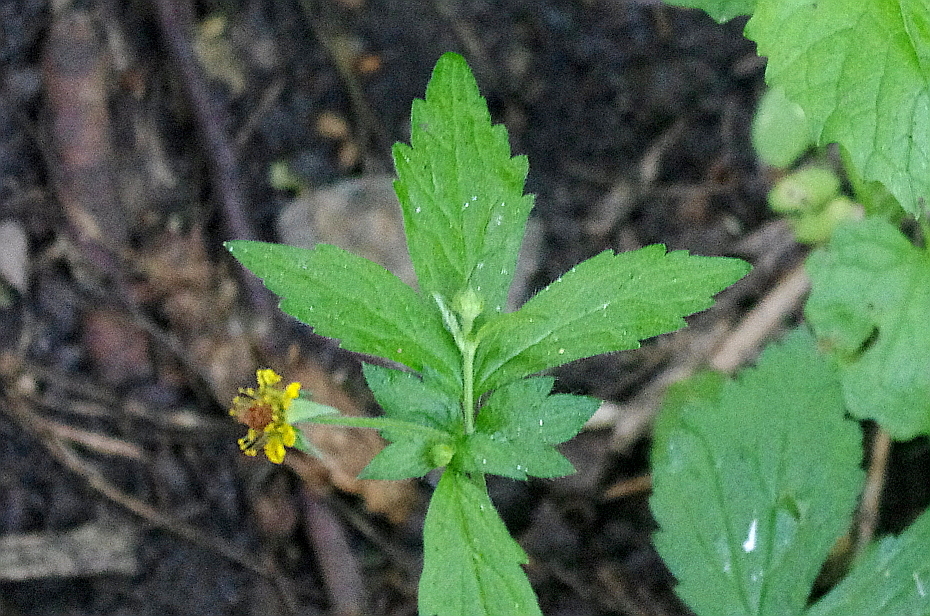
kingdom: Plantae
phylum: Tracheophyta
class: Magnoliopsida
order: Rosales
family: Rosaceae
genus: Geum
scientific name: Geum urbanum
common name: Wood avens
